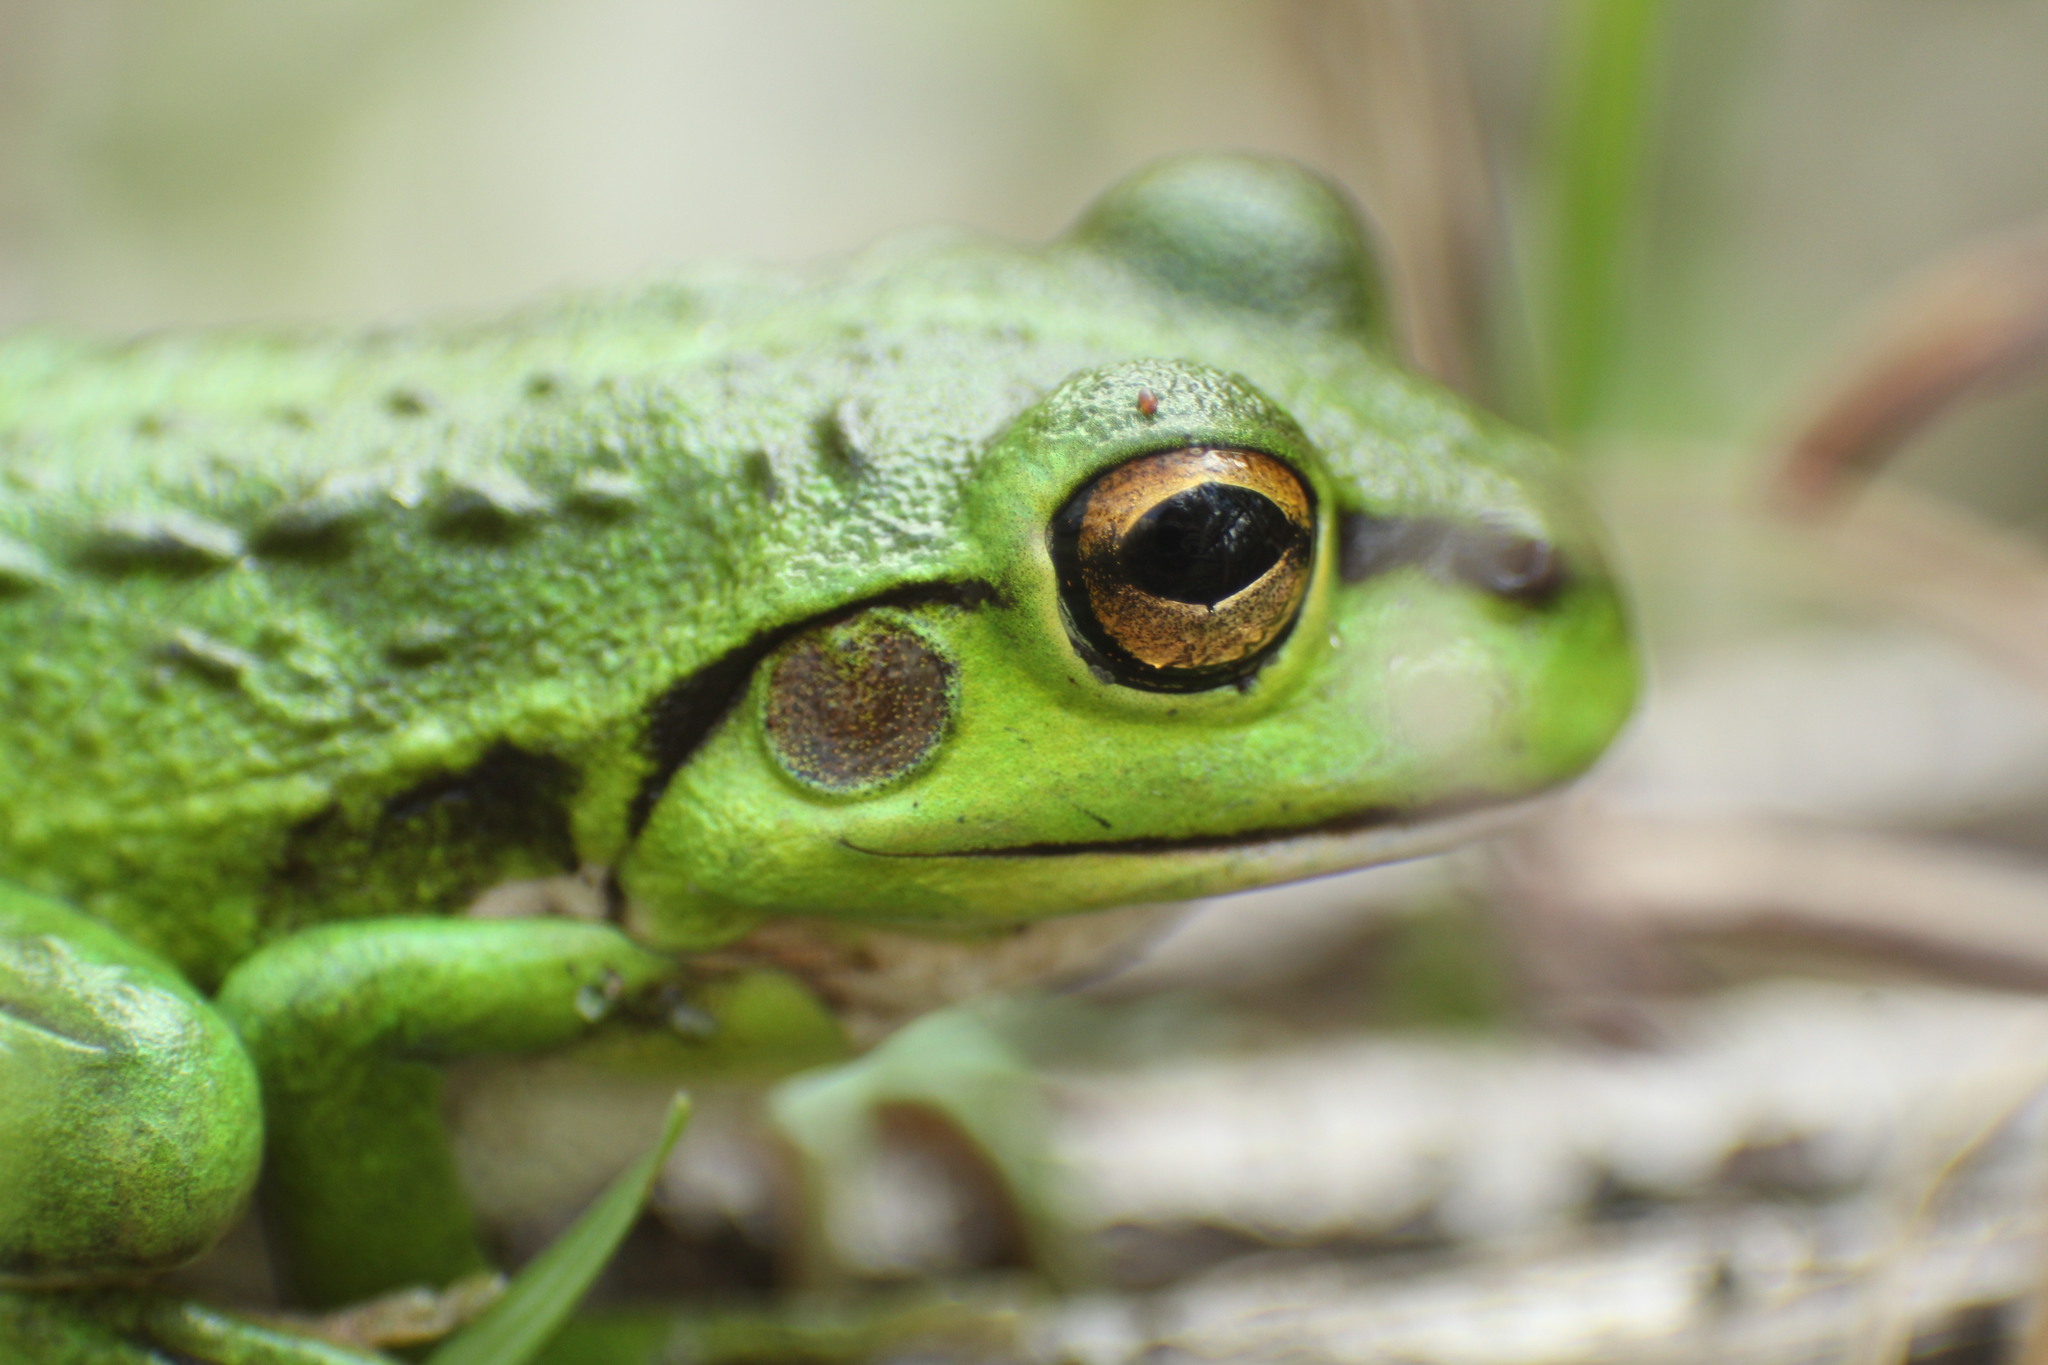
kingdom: Animalia
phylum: Chordata
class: Amphibia
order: Anura
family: Pelodryadidae
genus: Ranoidea
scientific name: Ranoidea moorei
